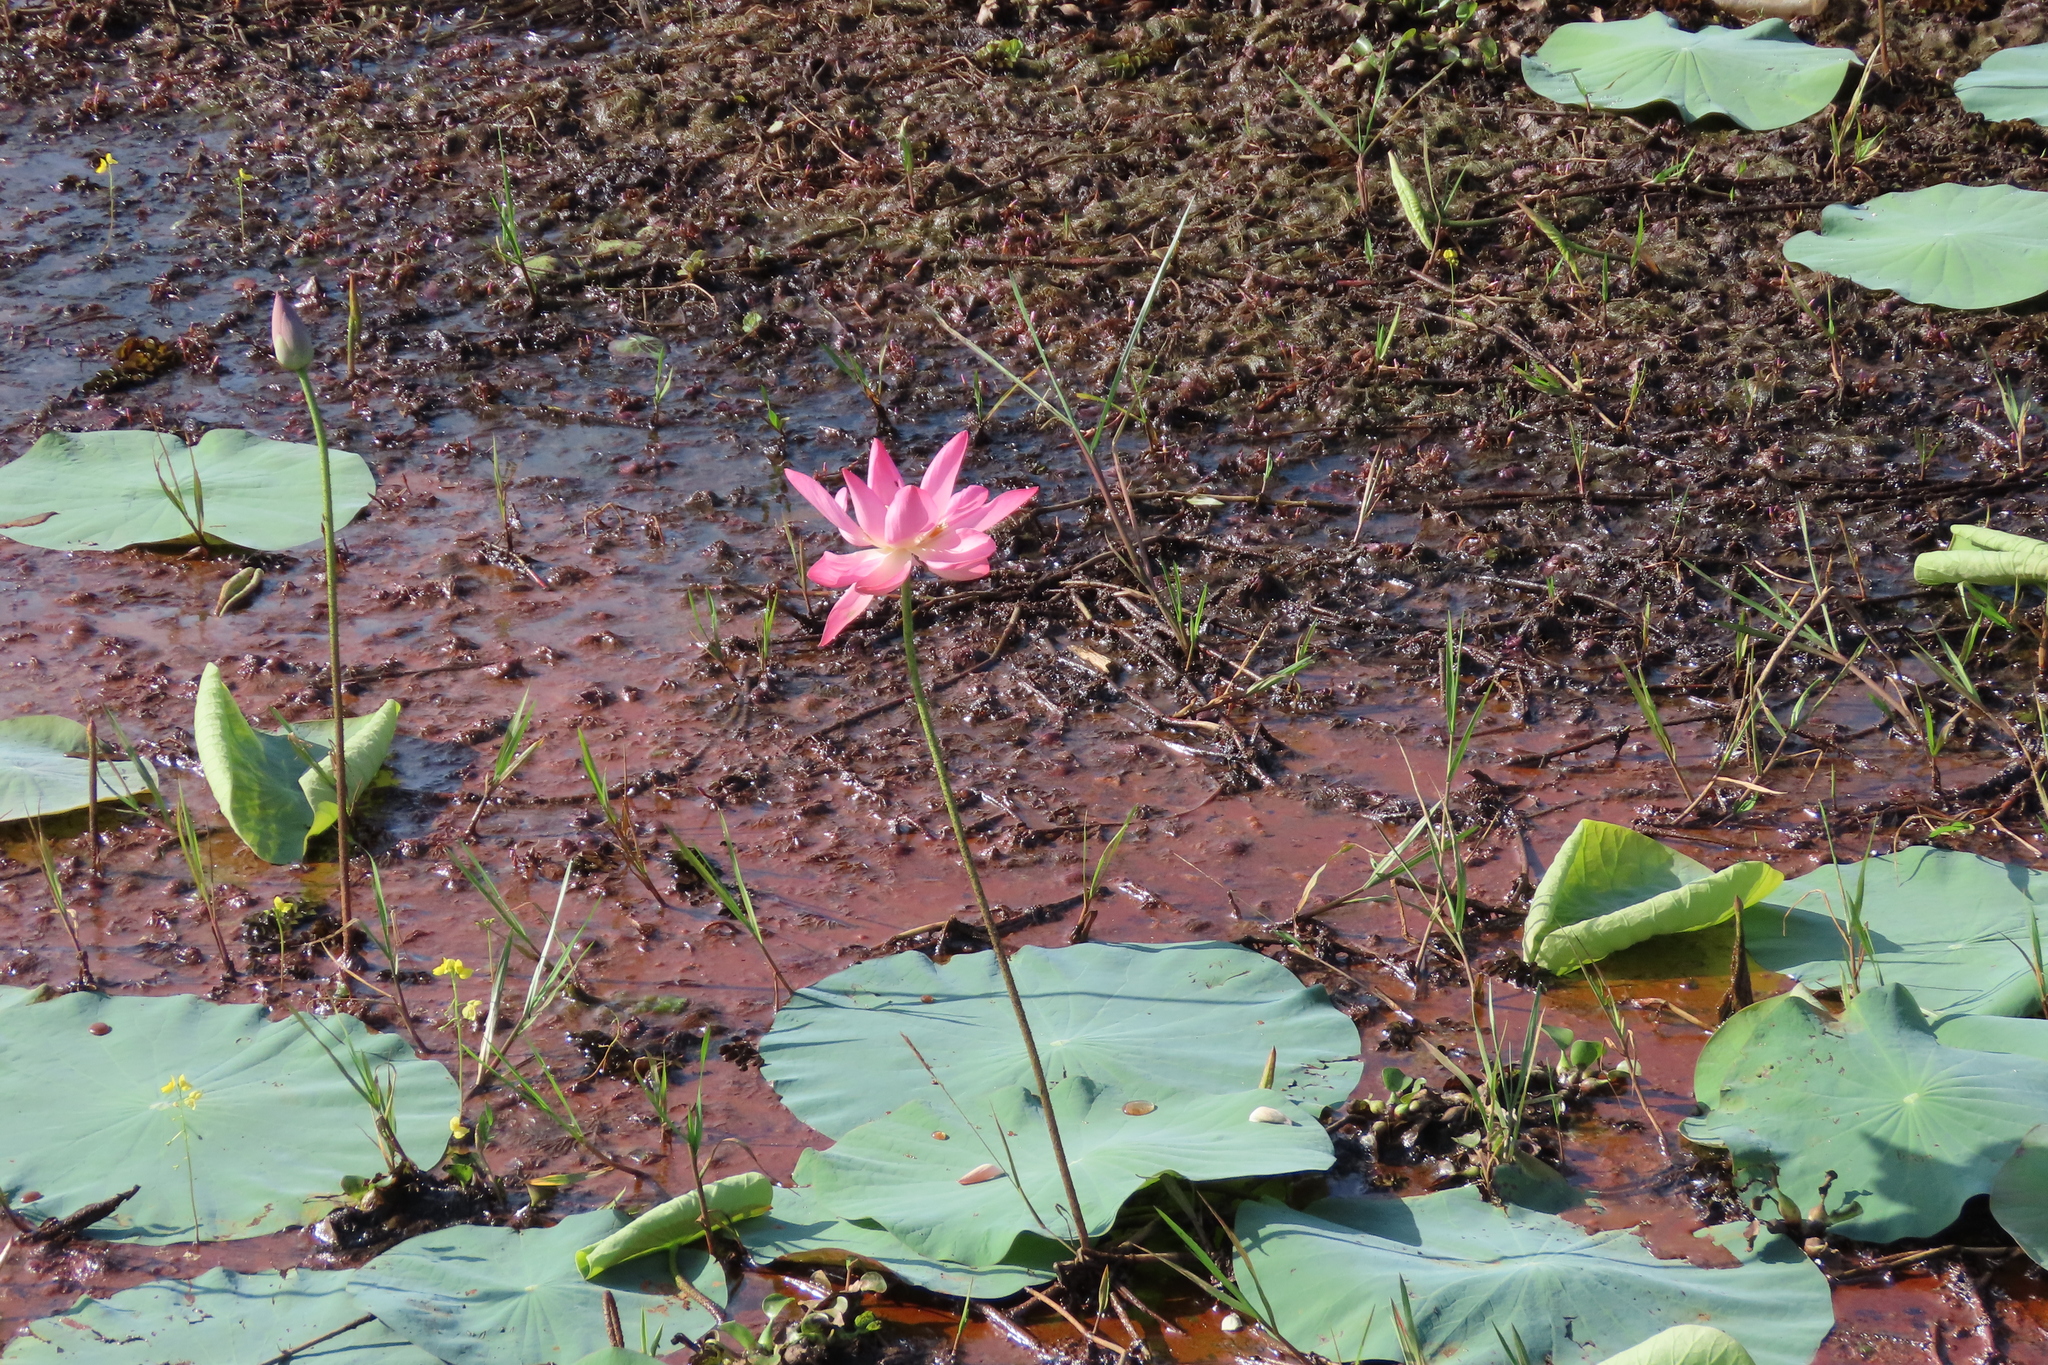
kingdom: Plantae
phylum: Tracheophyta
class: Magnoliopsida
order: Proteales
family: Nelumbonaceae
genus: Nelumbo
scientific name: Nelumbo nucifera
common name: Sacred lotus
